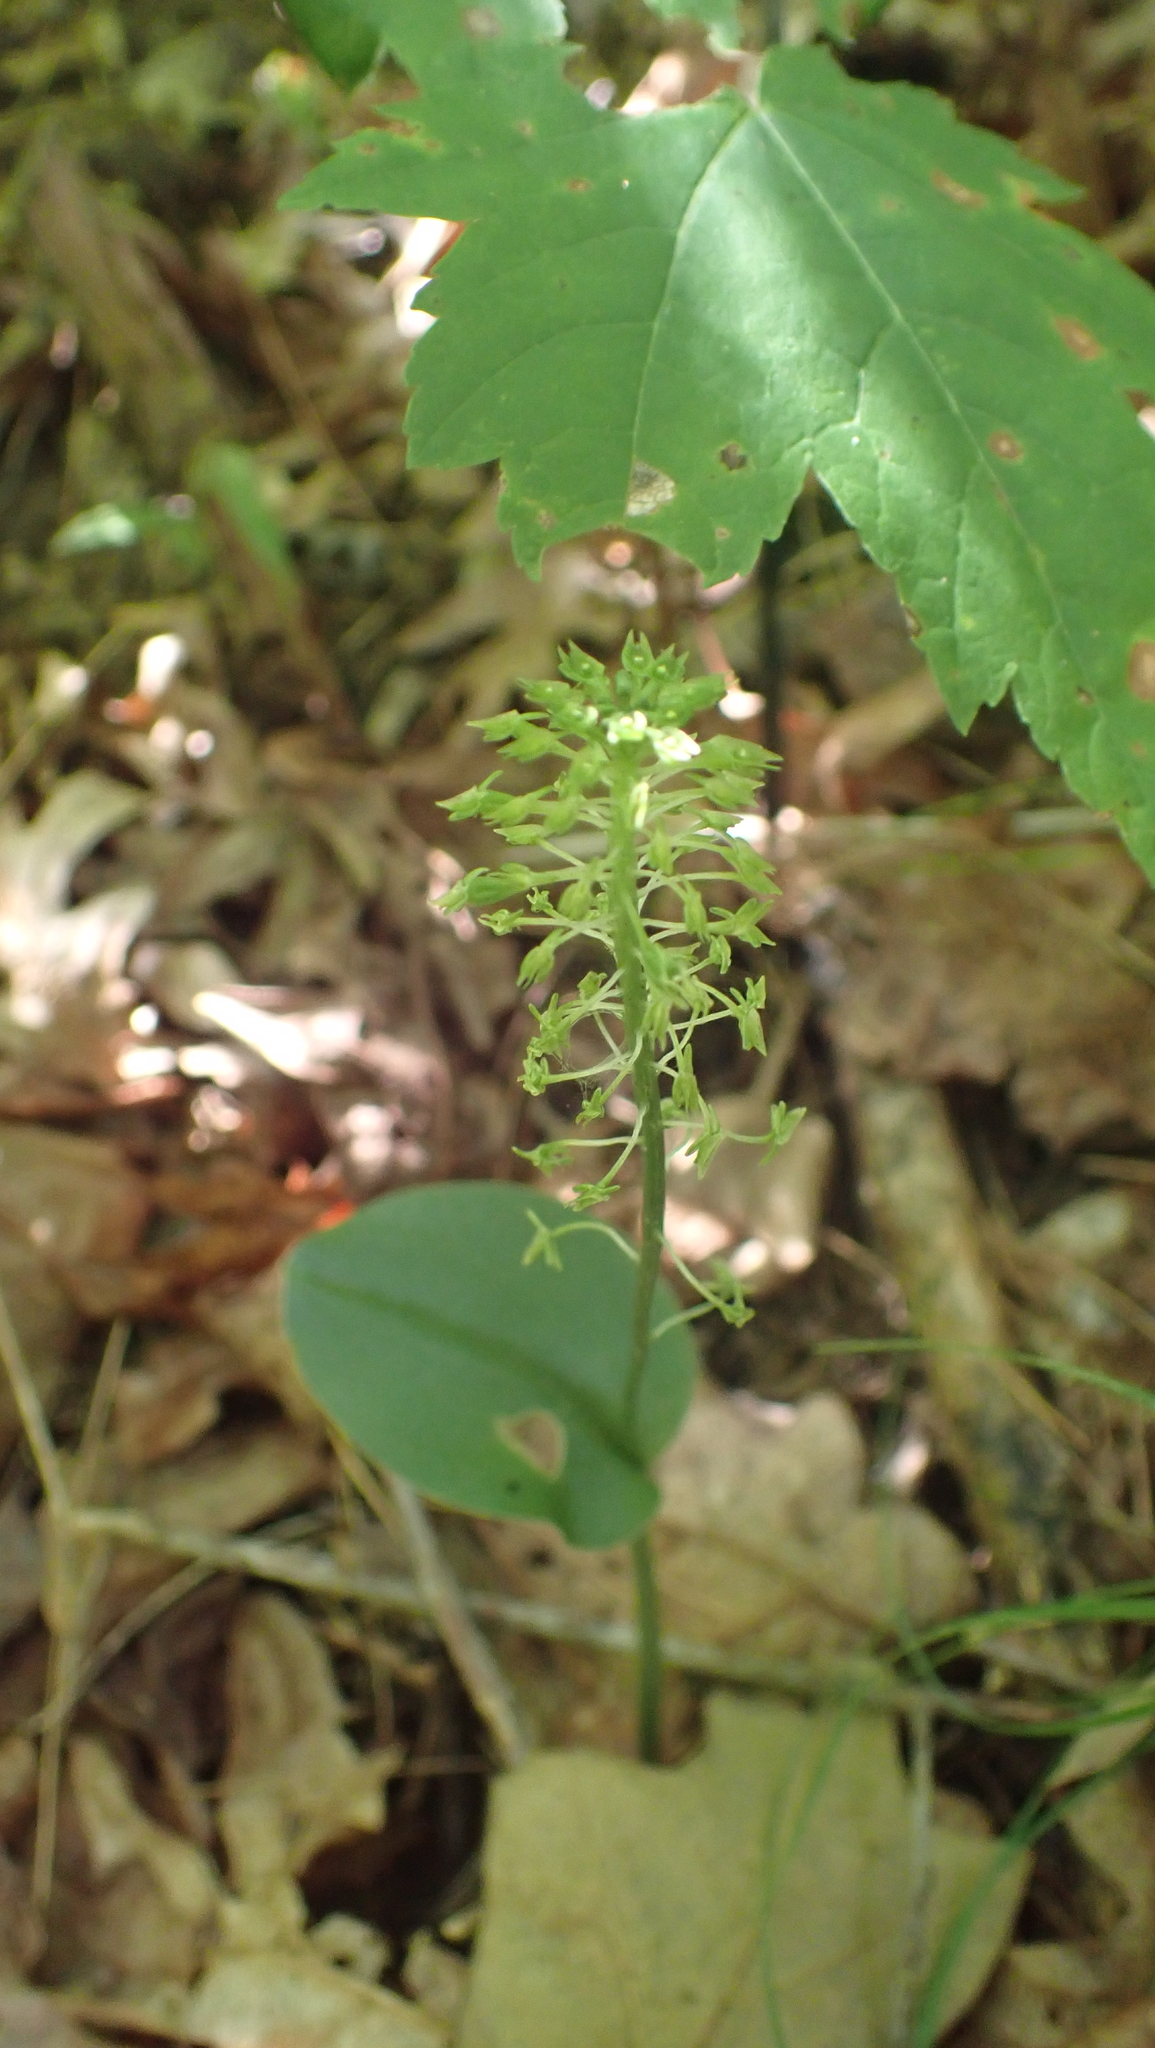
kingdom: Plantae
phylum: Tracheophyta
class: Liliopsida
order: Asparagales
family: Orchidaceae
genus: Malaxis
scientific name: Malaxis unifolia
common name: Green adder's-mouth
